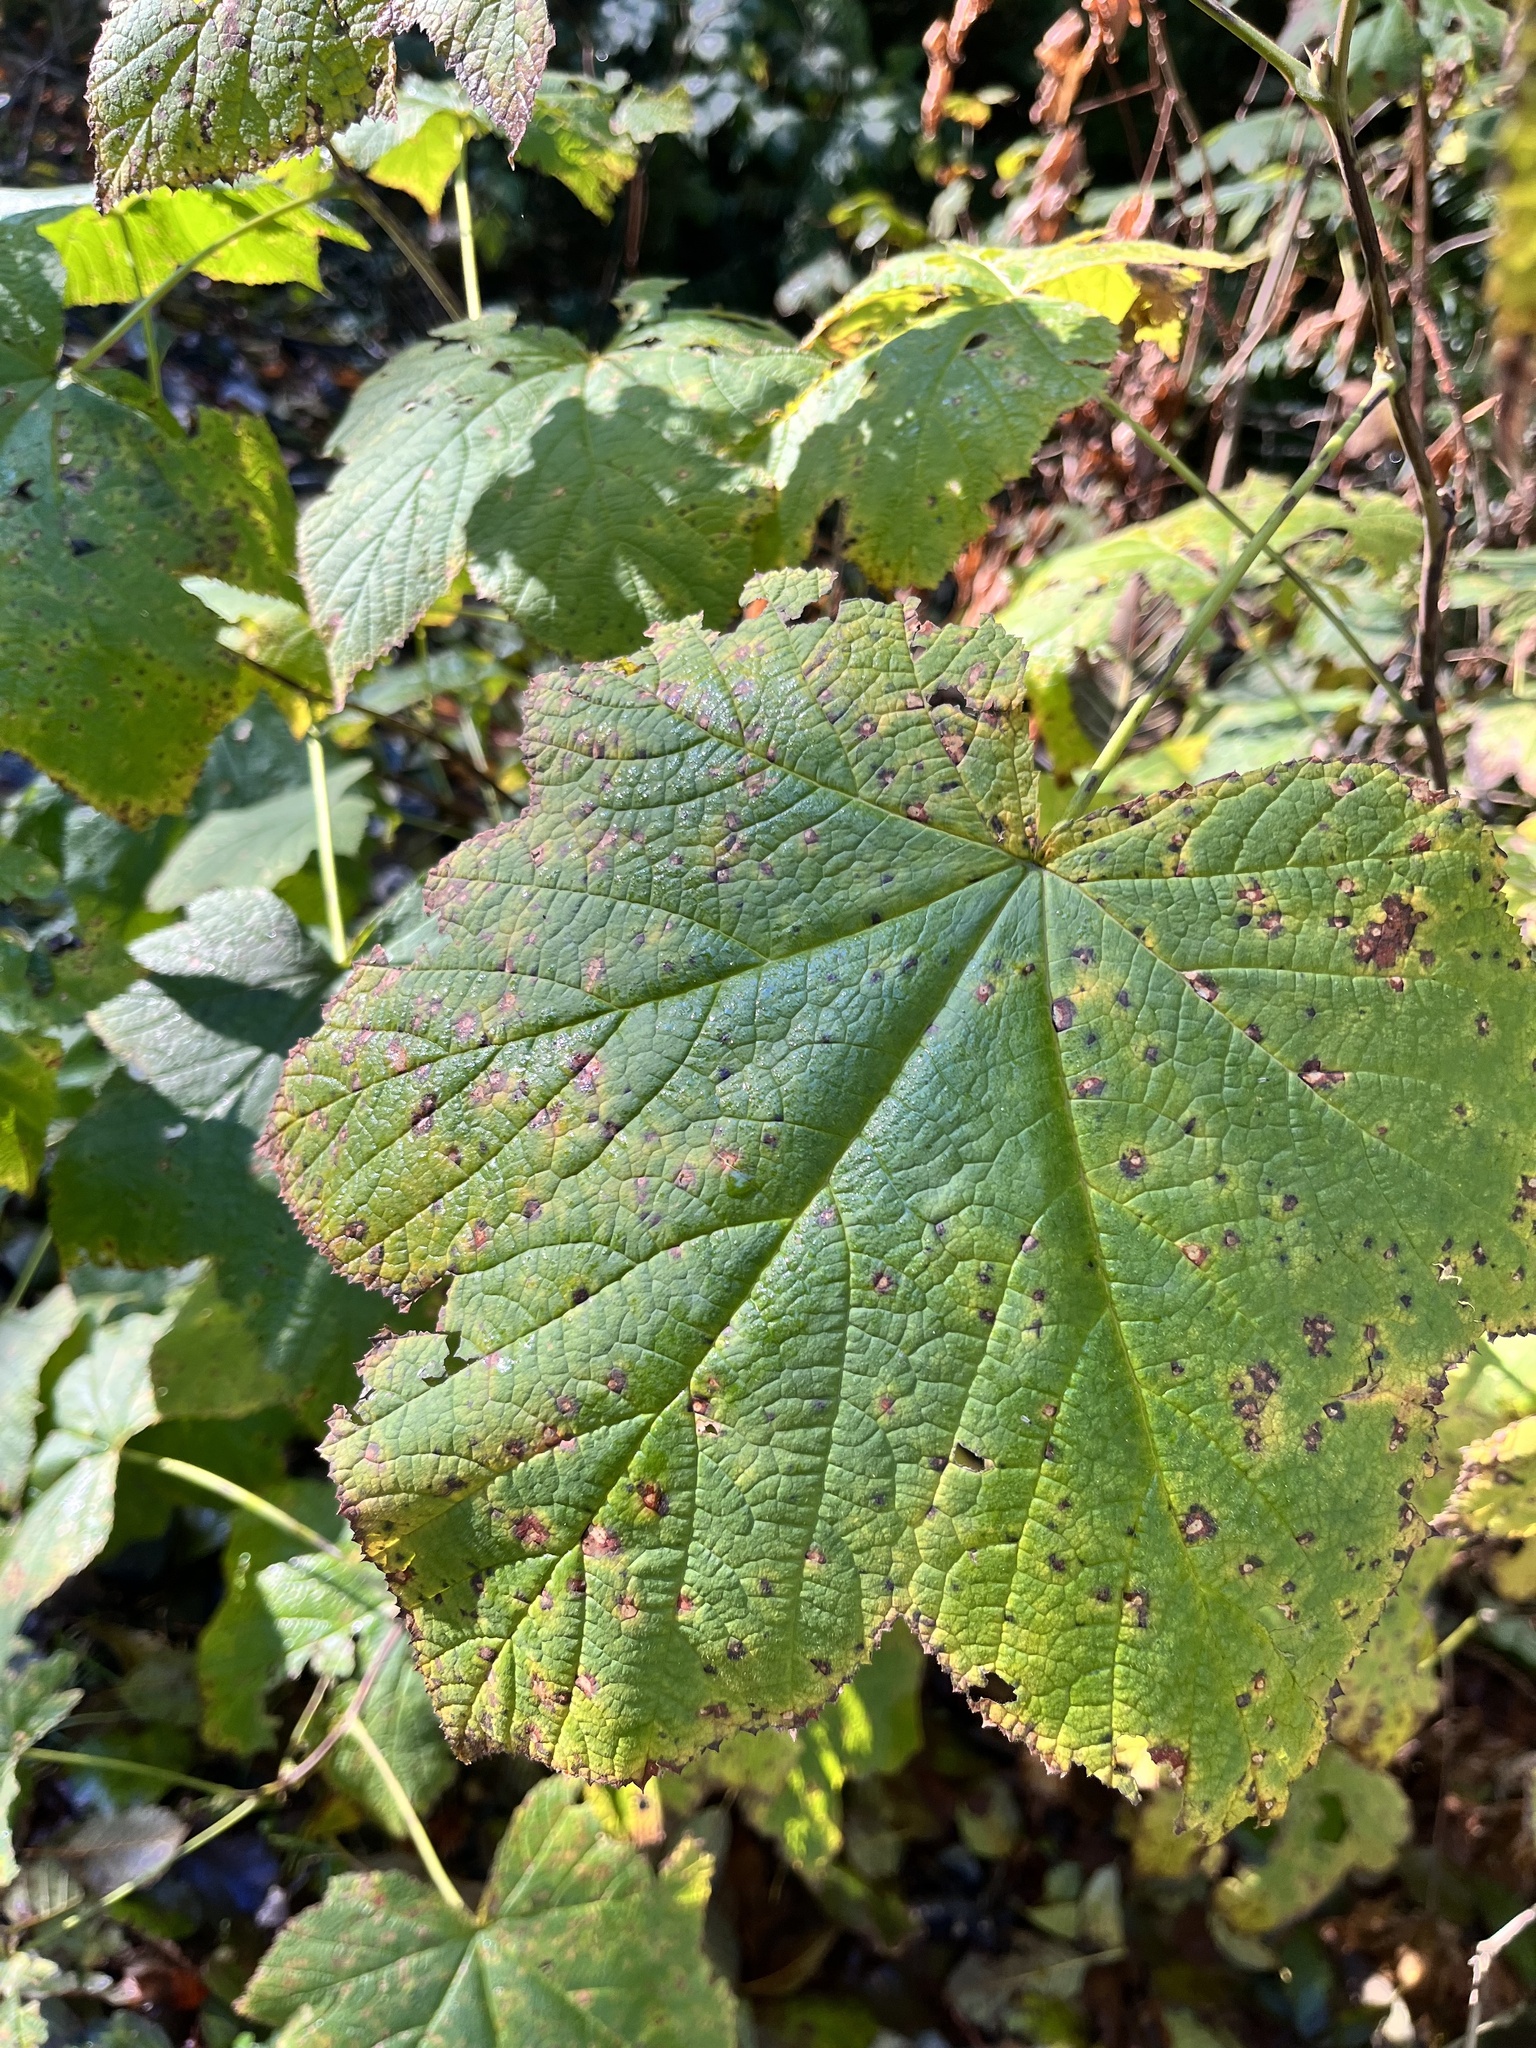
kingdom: Plantae
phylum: Tracheophyta
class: Magnoliopsida
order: Rosales
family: Rosaceae
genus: Rubus
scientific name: Rubus parviflorus
